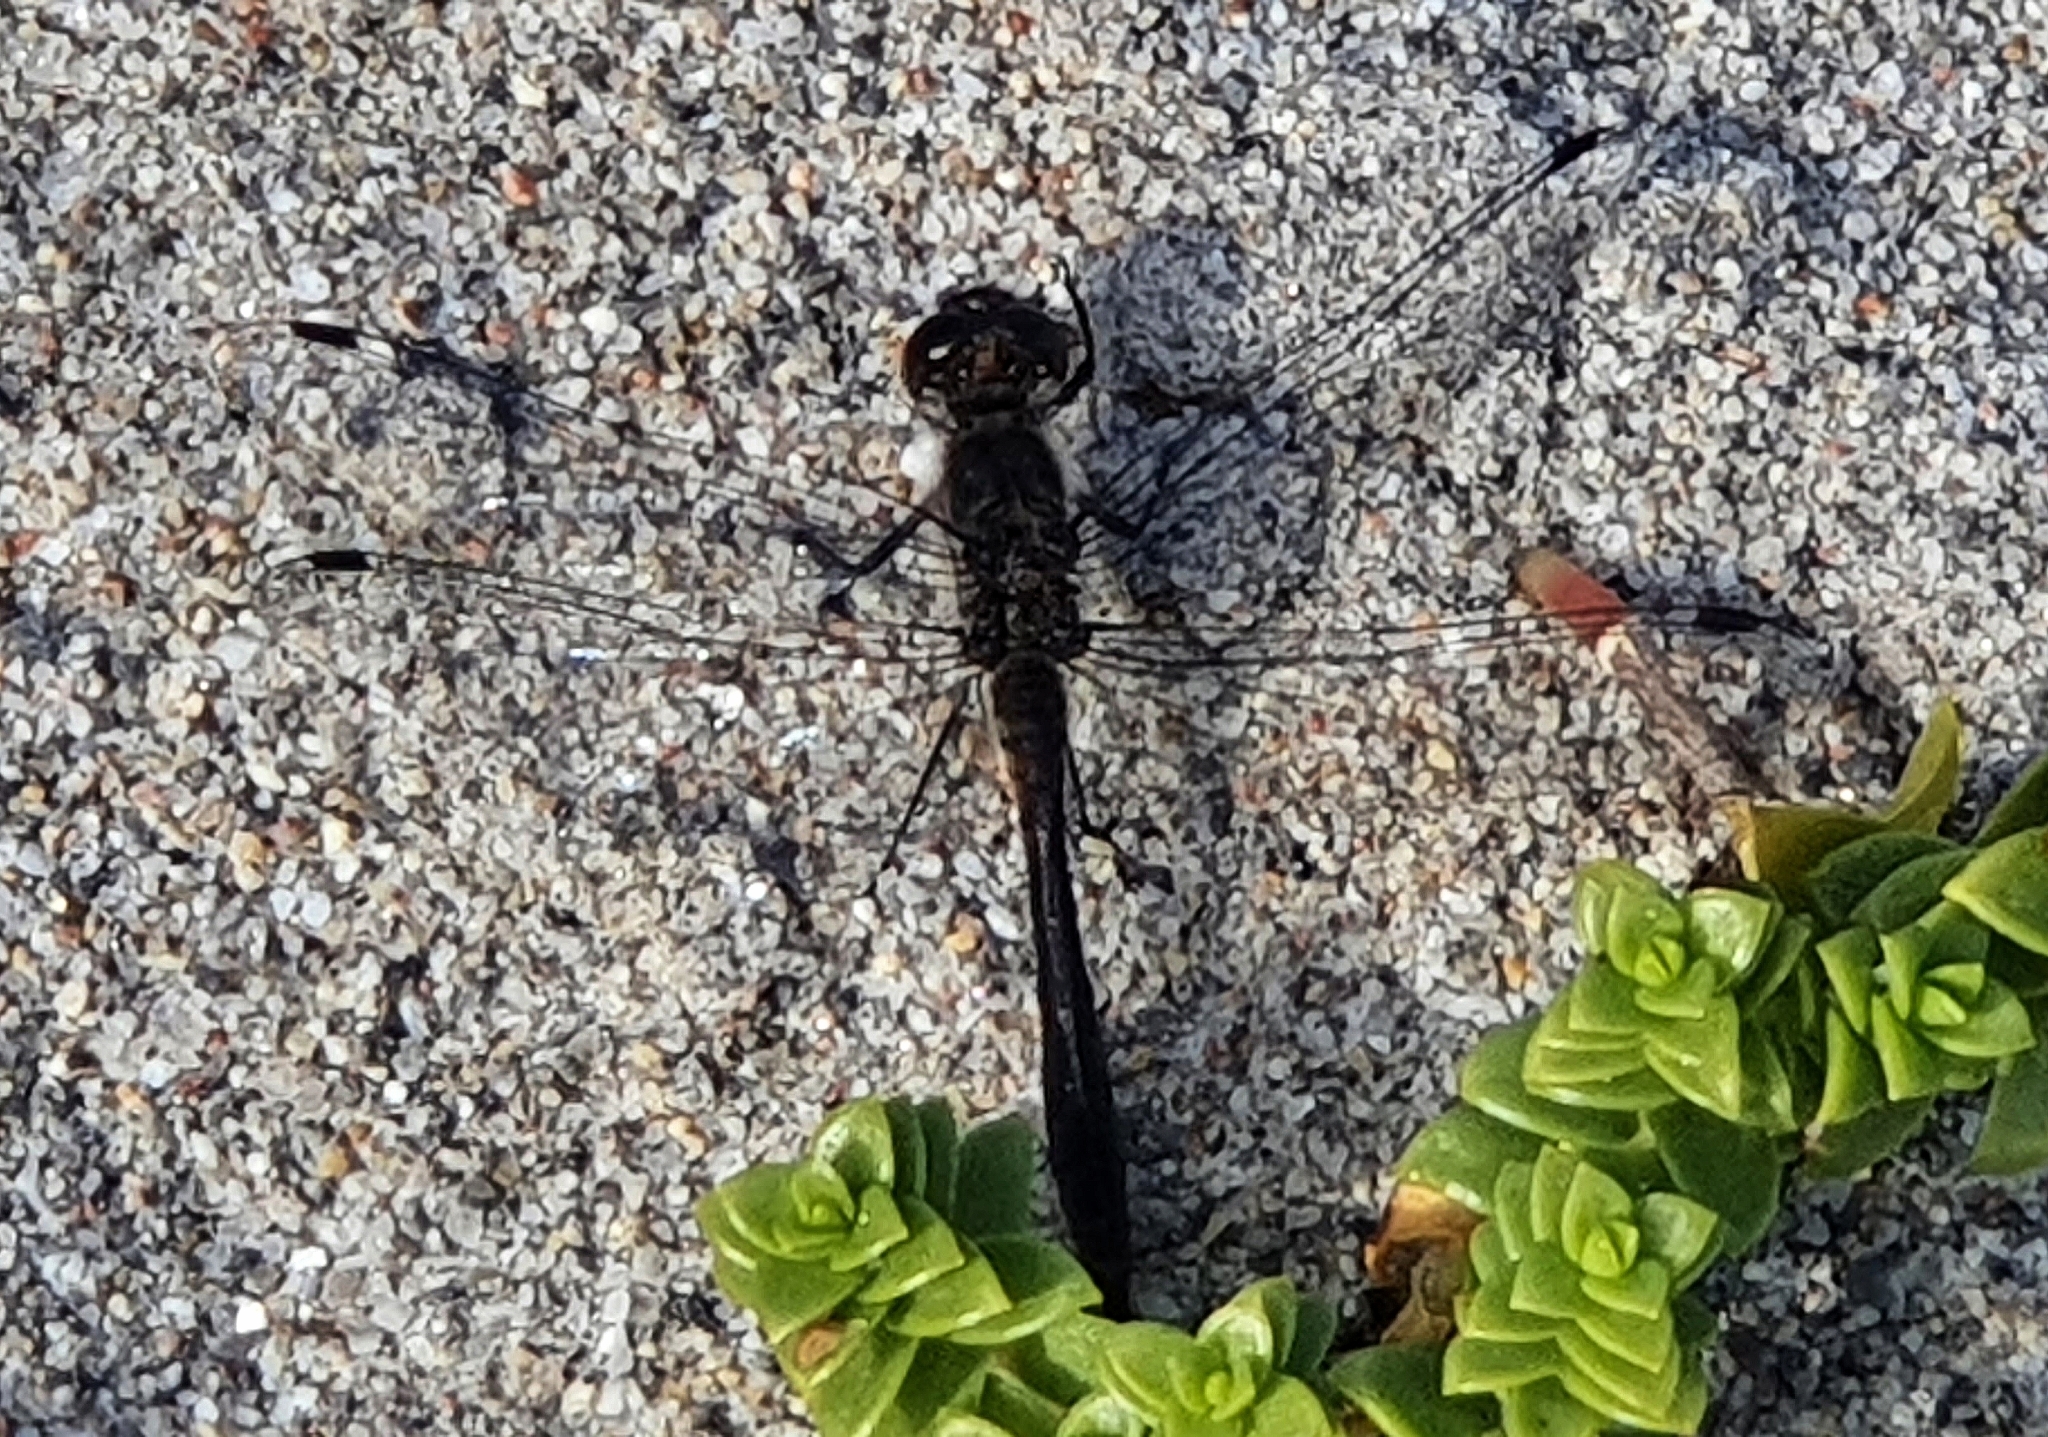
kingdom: Animalia
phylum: Arthropoda
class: Insecta
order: Odonata
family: Libellulidae
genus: Sympetrum
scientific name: Sympetrum danae
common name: Black darter
